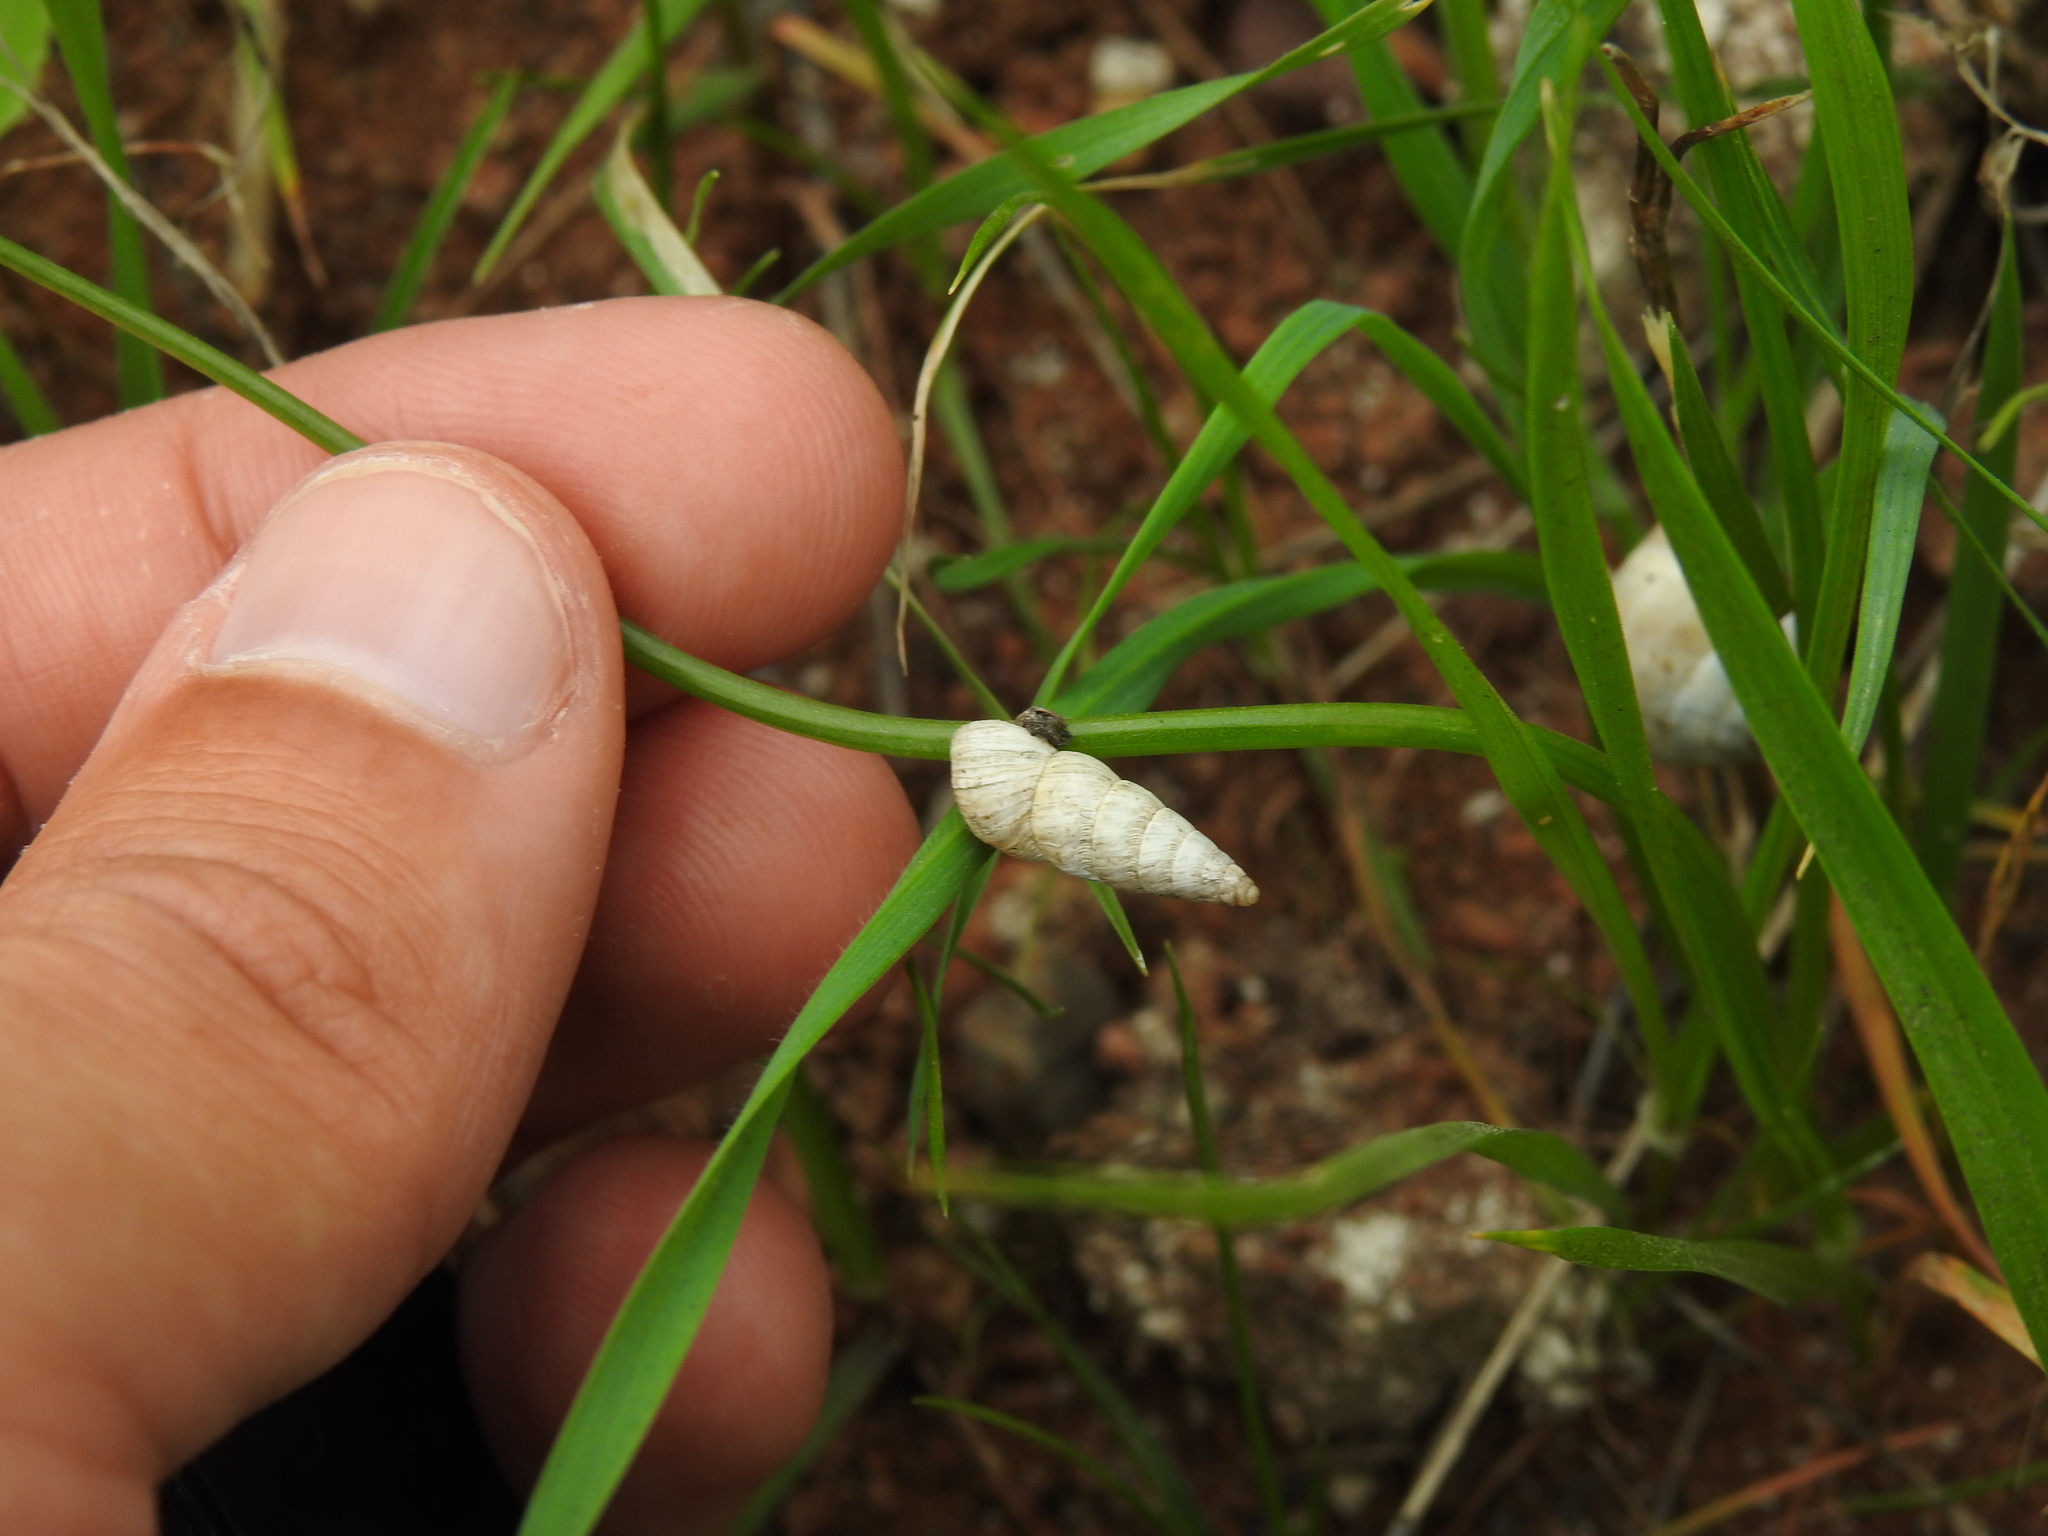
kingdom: Animalia
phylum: Mollusca
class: Gastropoda
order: Stylommatophora
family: Geomitridae
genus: Cochlicella
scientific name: Cochlicella acuta
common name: Pointed snail
